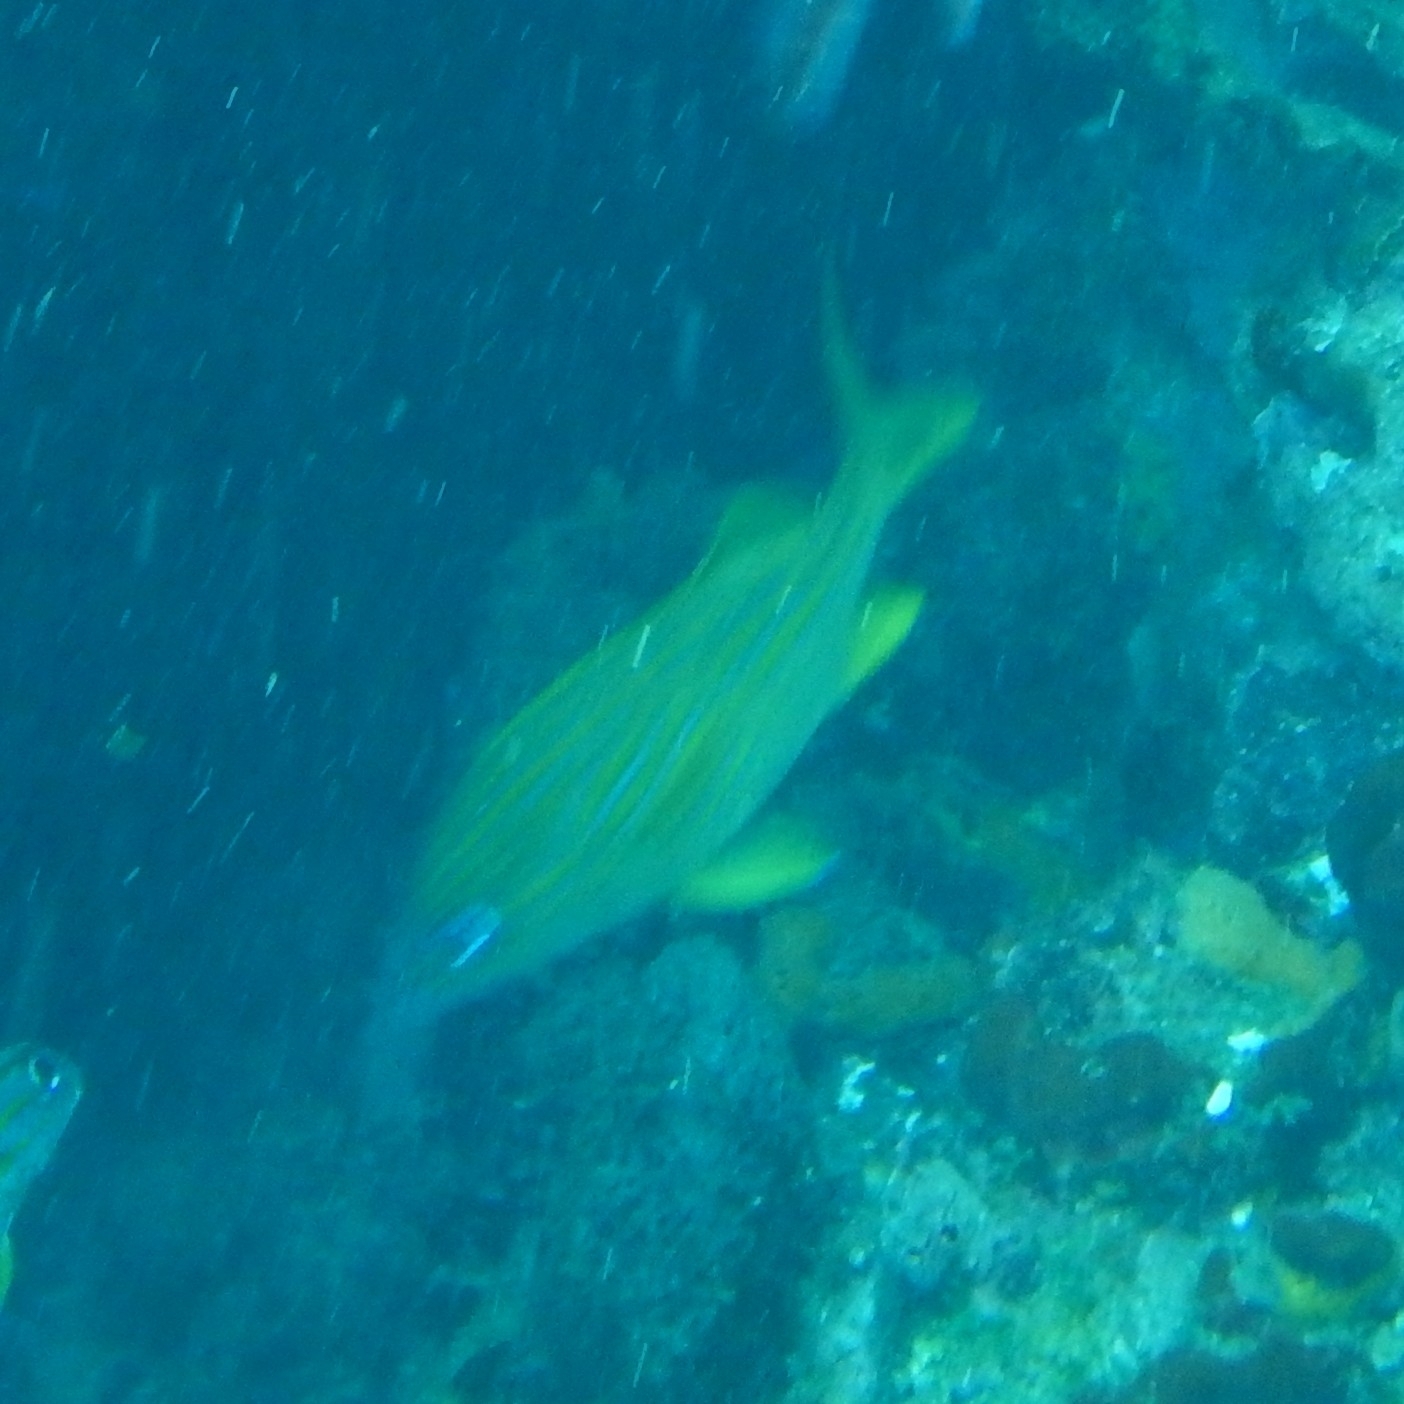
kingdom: Animalia
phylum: Chordata
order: Perciformes
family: Haemulidae
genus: Haemulon
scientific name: Haemulon flavolineatum
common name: French grunt
